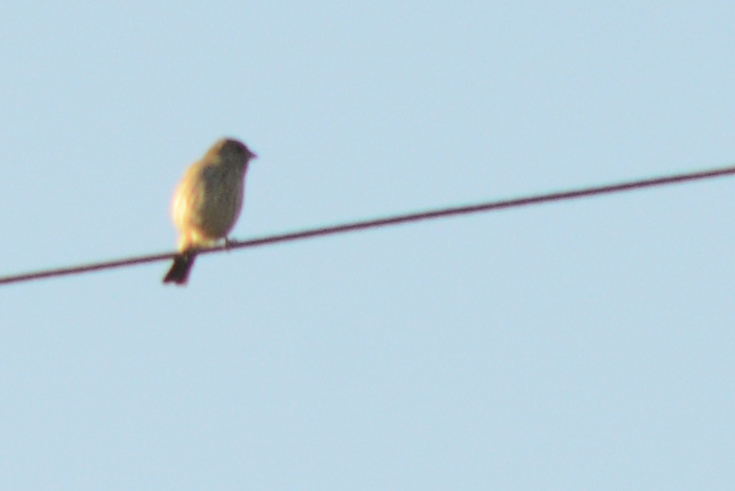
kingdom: Animalia
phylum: Chordata
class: Aves
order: Passeriformes
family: Fringillidae
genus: Haemorhous
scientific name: Haemorhous mexicanus
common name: House finch
